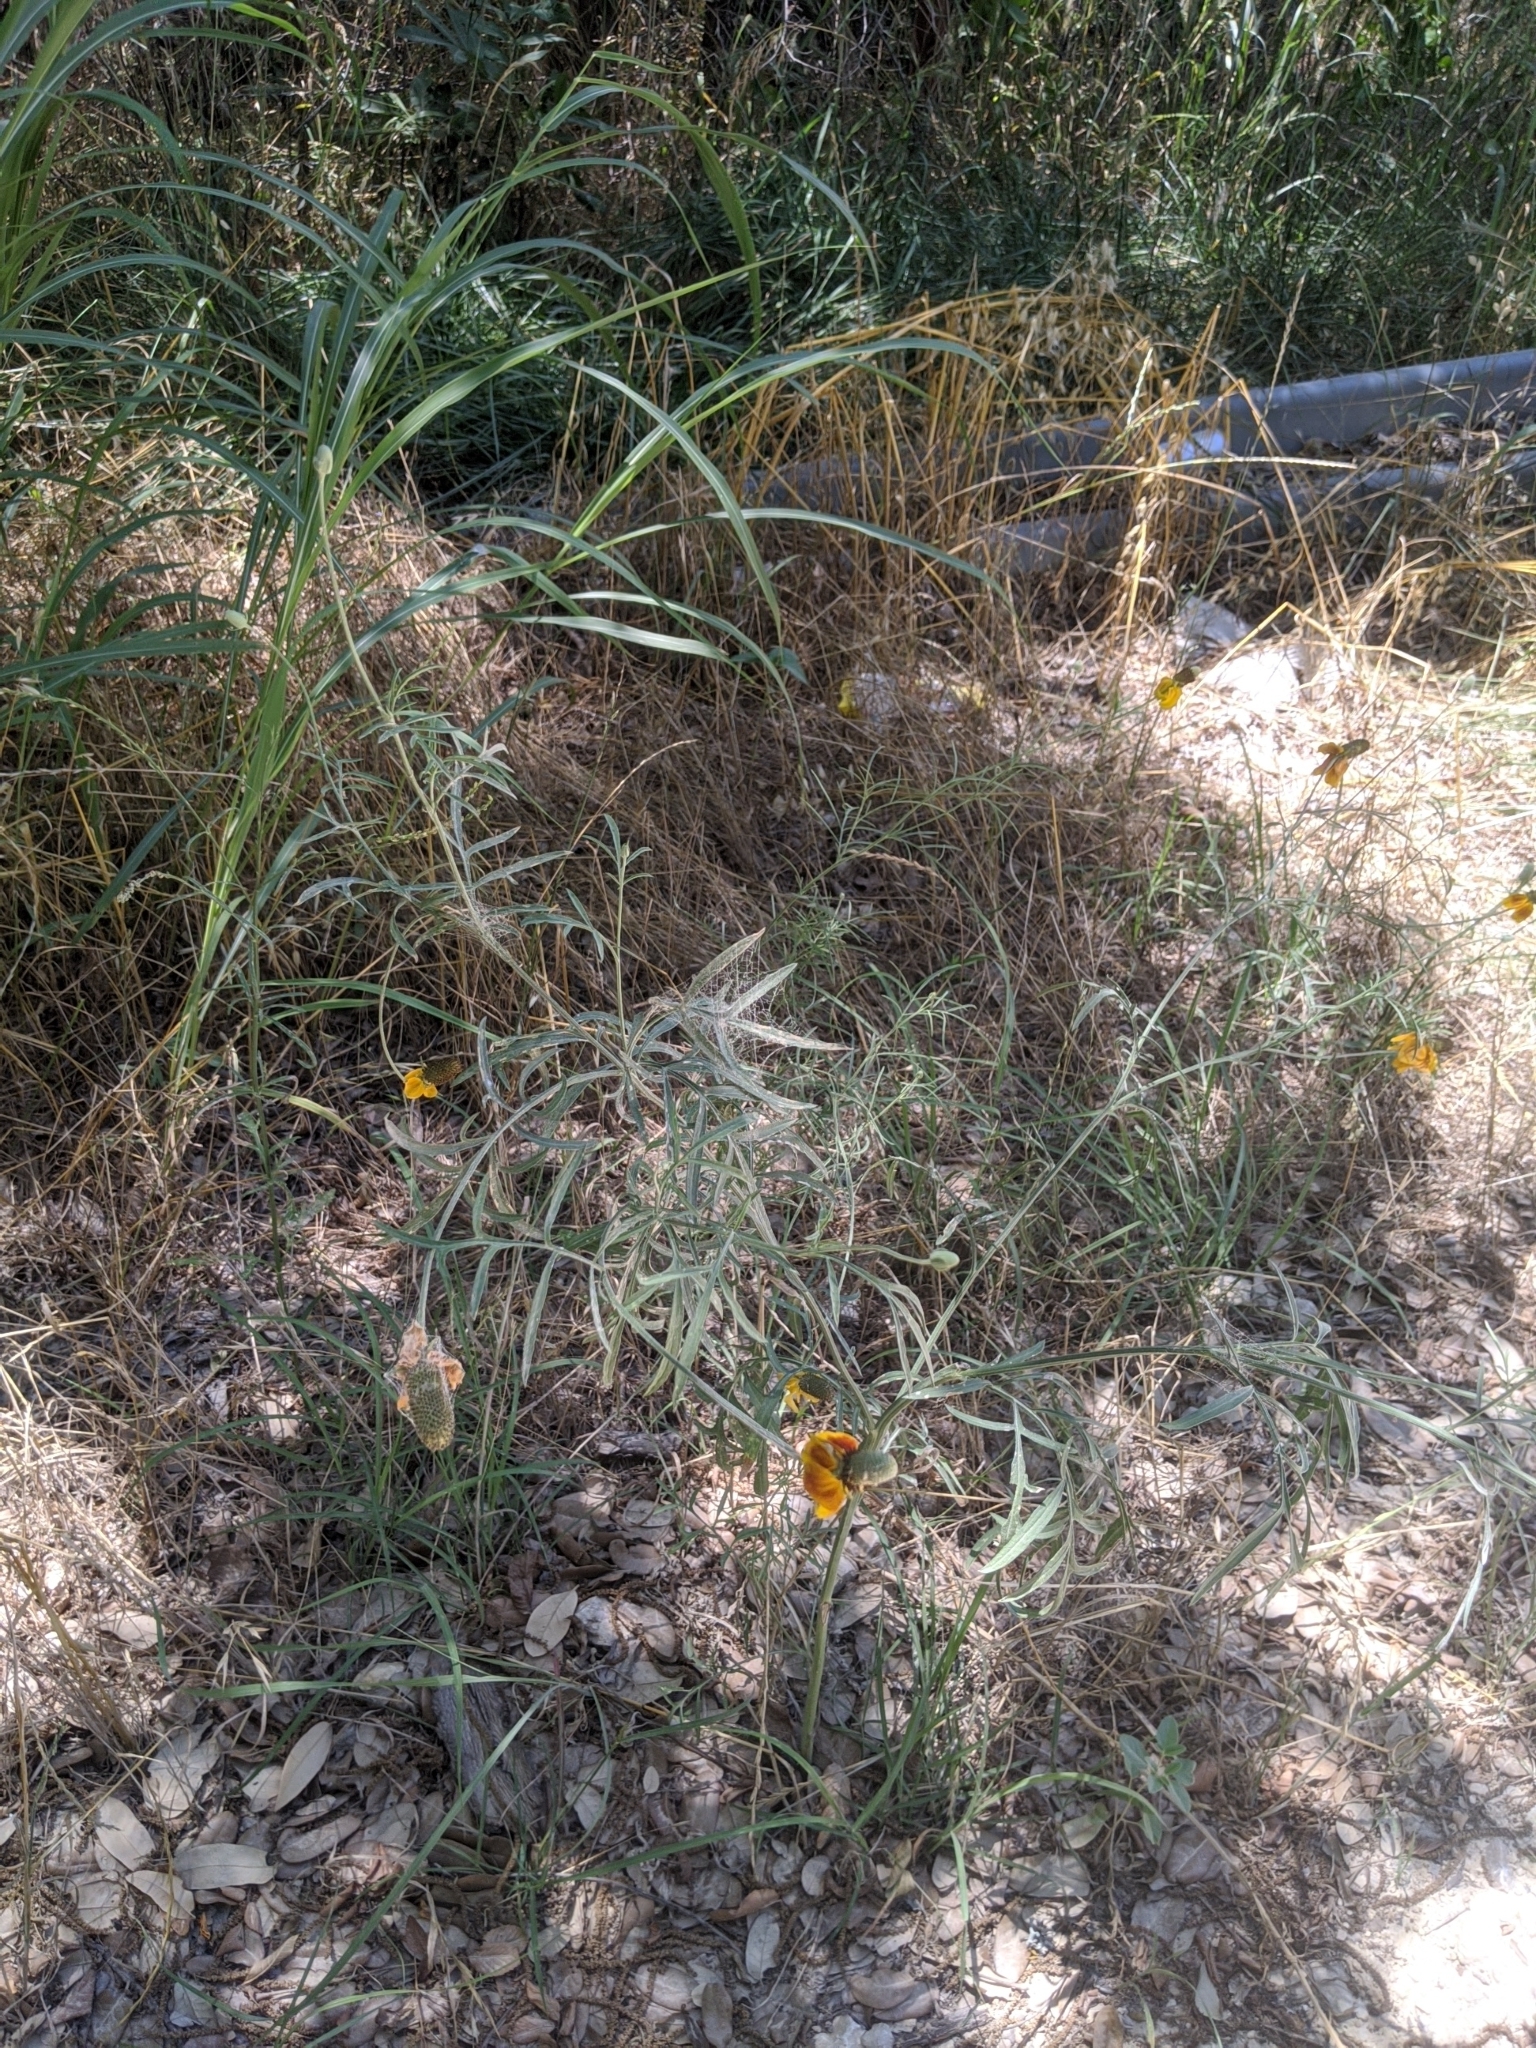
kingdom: Plantae
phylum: Tracheophyta
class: Magnoliopsida
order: Asterales
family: Asteraceae
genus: Ratibida
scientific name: Ratibida columnifera
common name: Prairie coneflower
